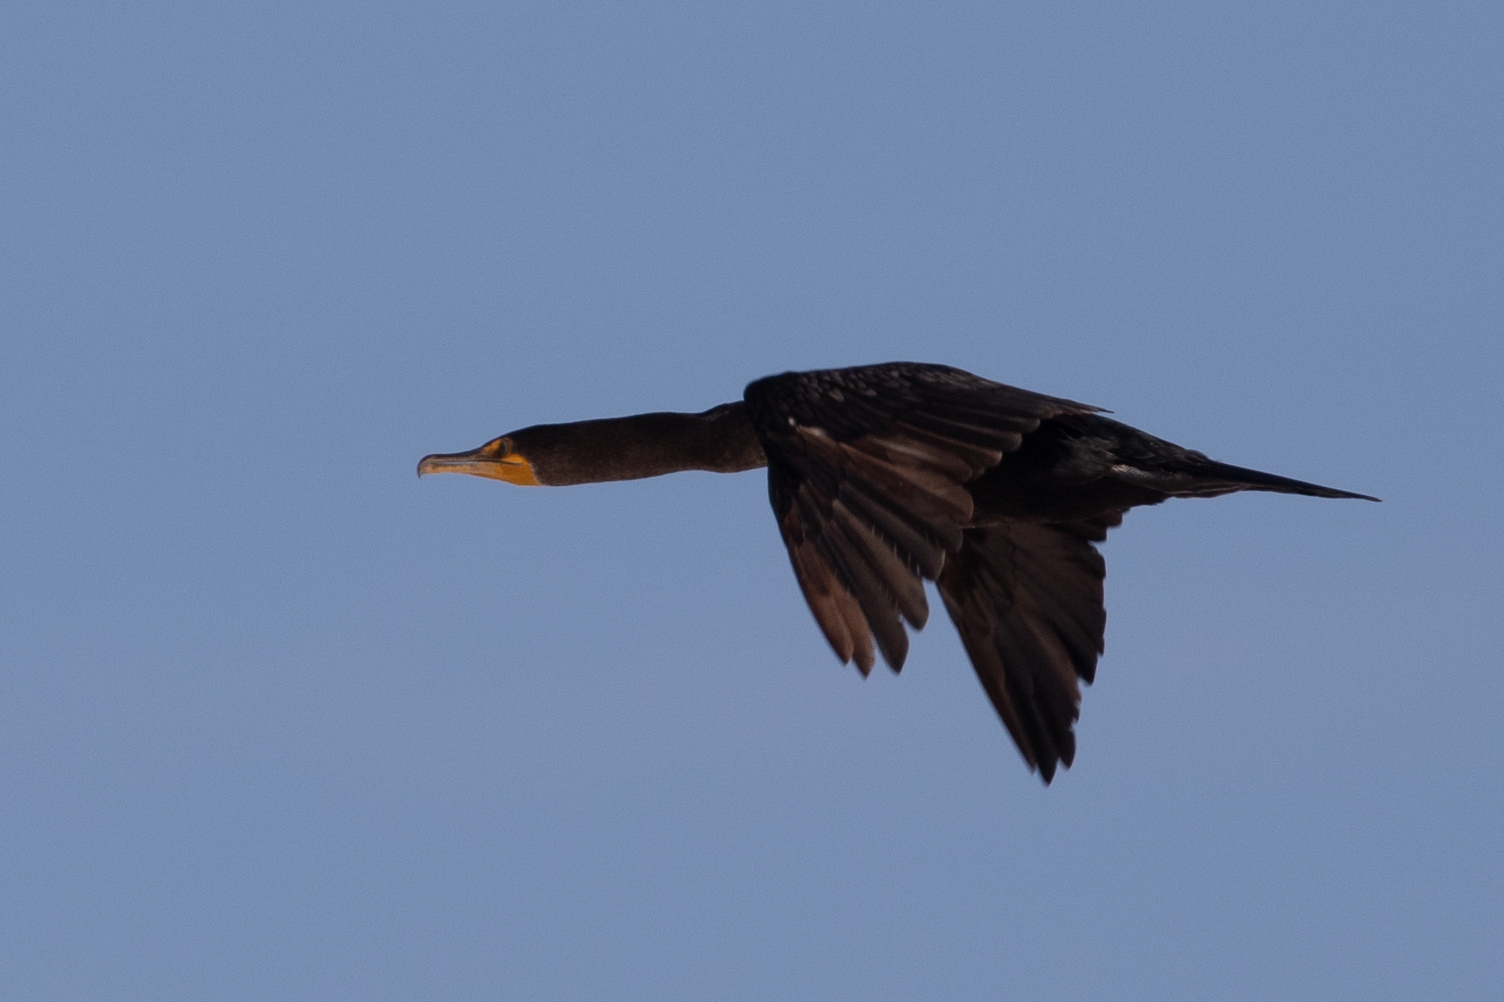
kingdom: Animalia
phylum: Chordata
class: Aves
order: Suliformes
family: Phalacrocoracidae
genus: Phalacrocorax
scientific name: Phalacrocorax auritus
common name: Double-crested cormorant
